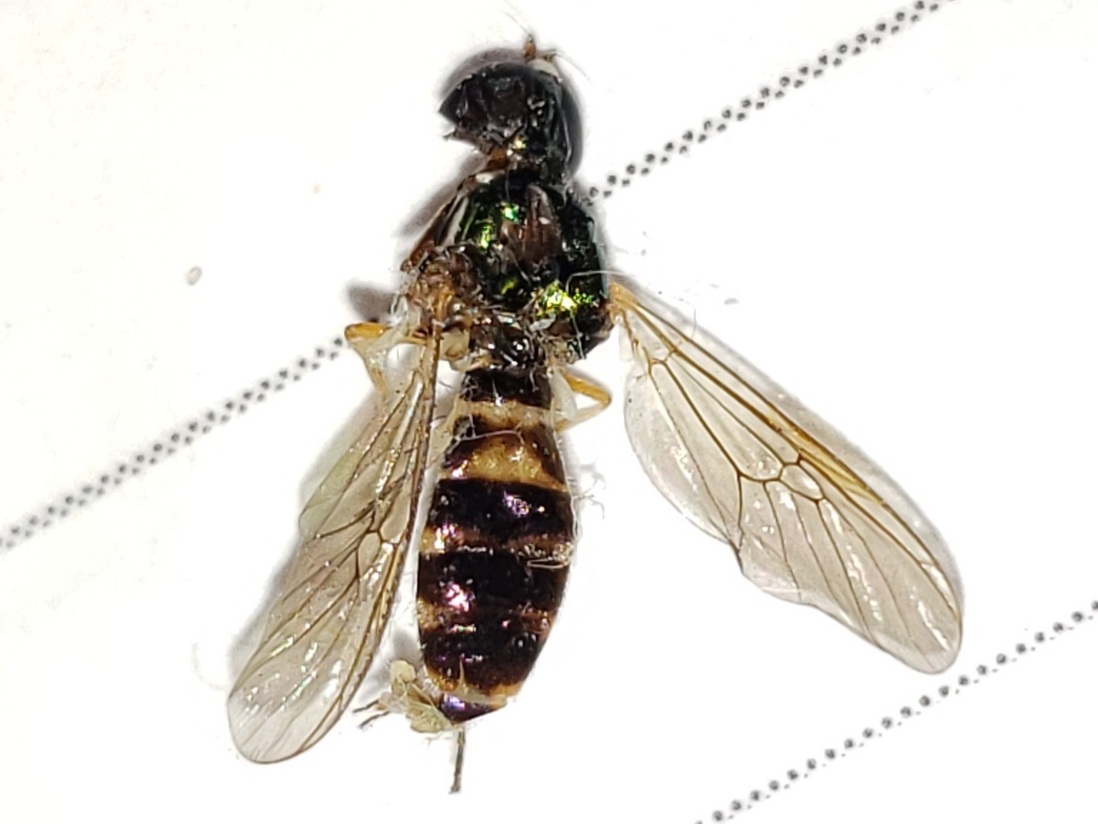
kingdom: Animalia
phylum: Arthropoda
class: Insecta
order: Diptera
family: Stratiomyidae
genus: Sargus
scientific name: Sargus fasciatus
